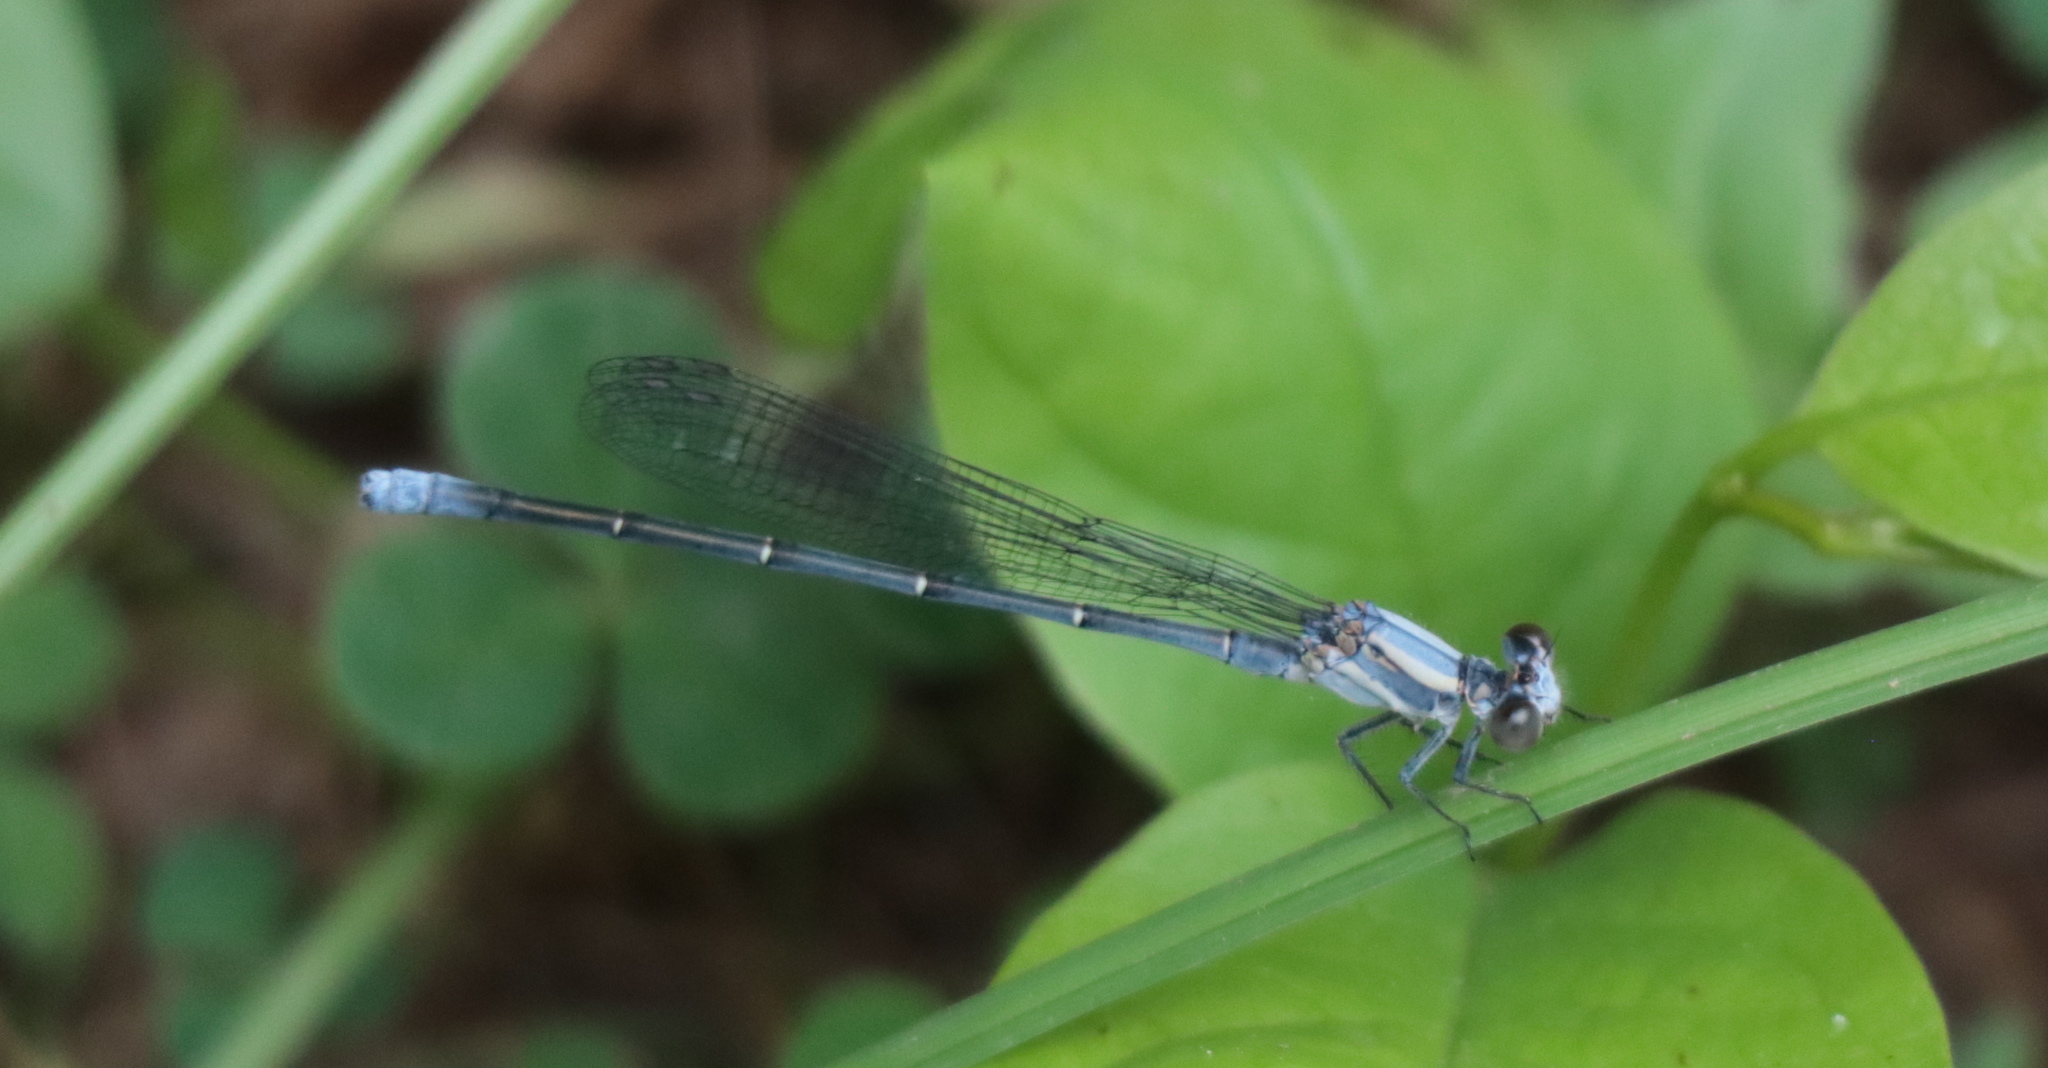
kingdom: Animalia
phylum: Arthropoda
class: Insecta
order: Odonata
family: Coenagrionidae
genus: Argia
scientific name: Argia moesta
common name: Powdered dancer
